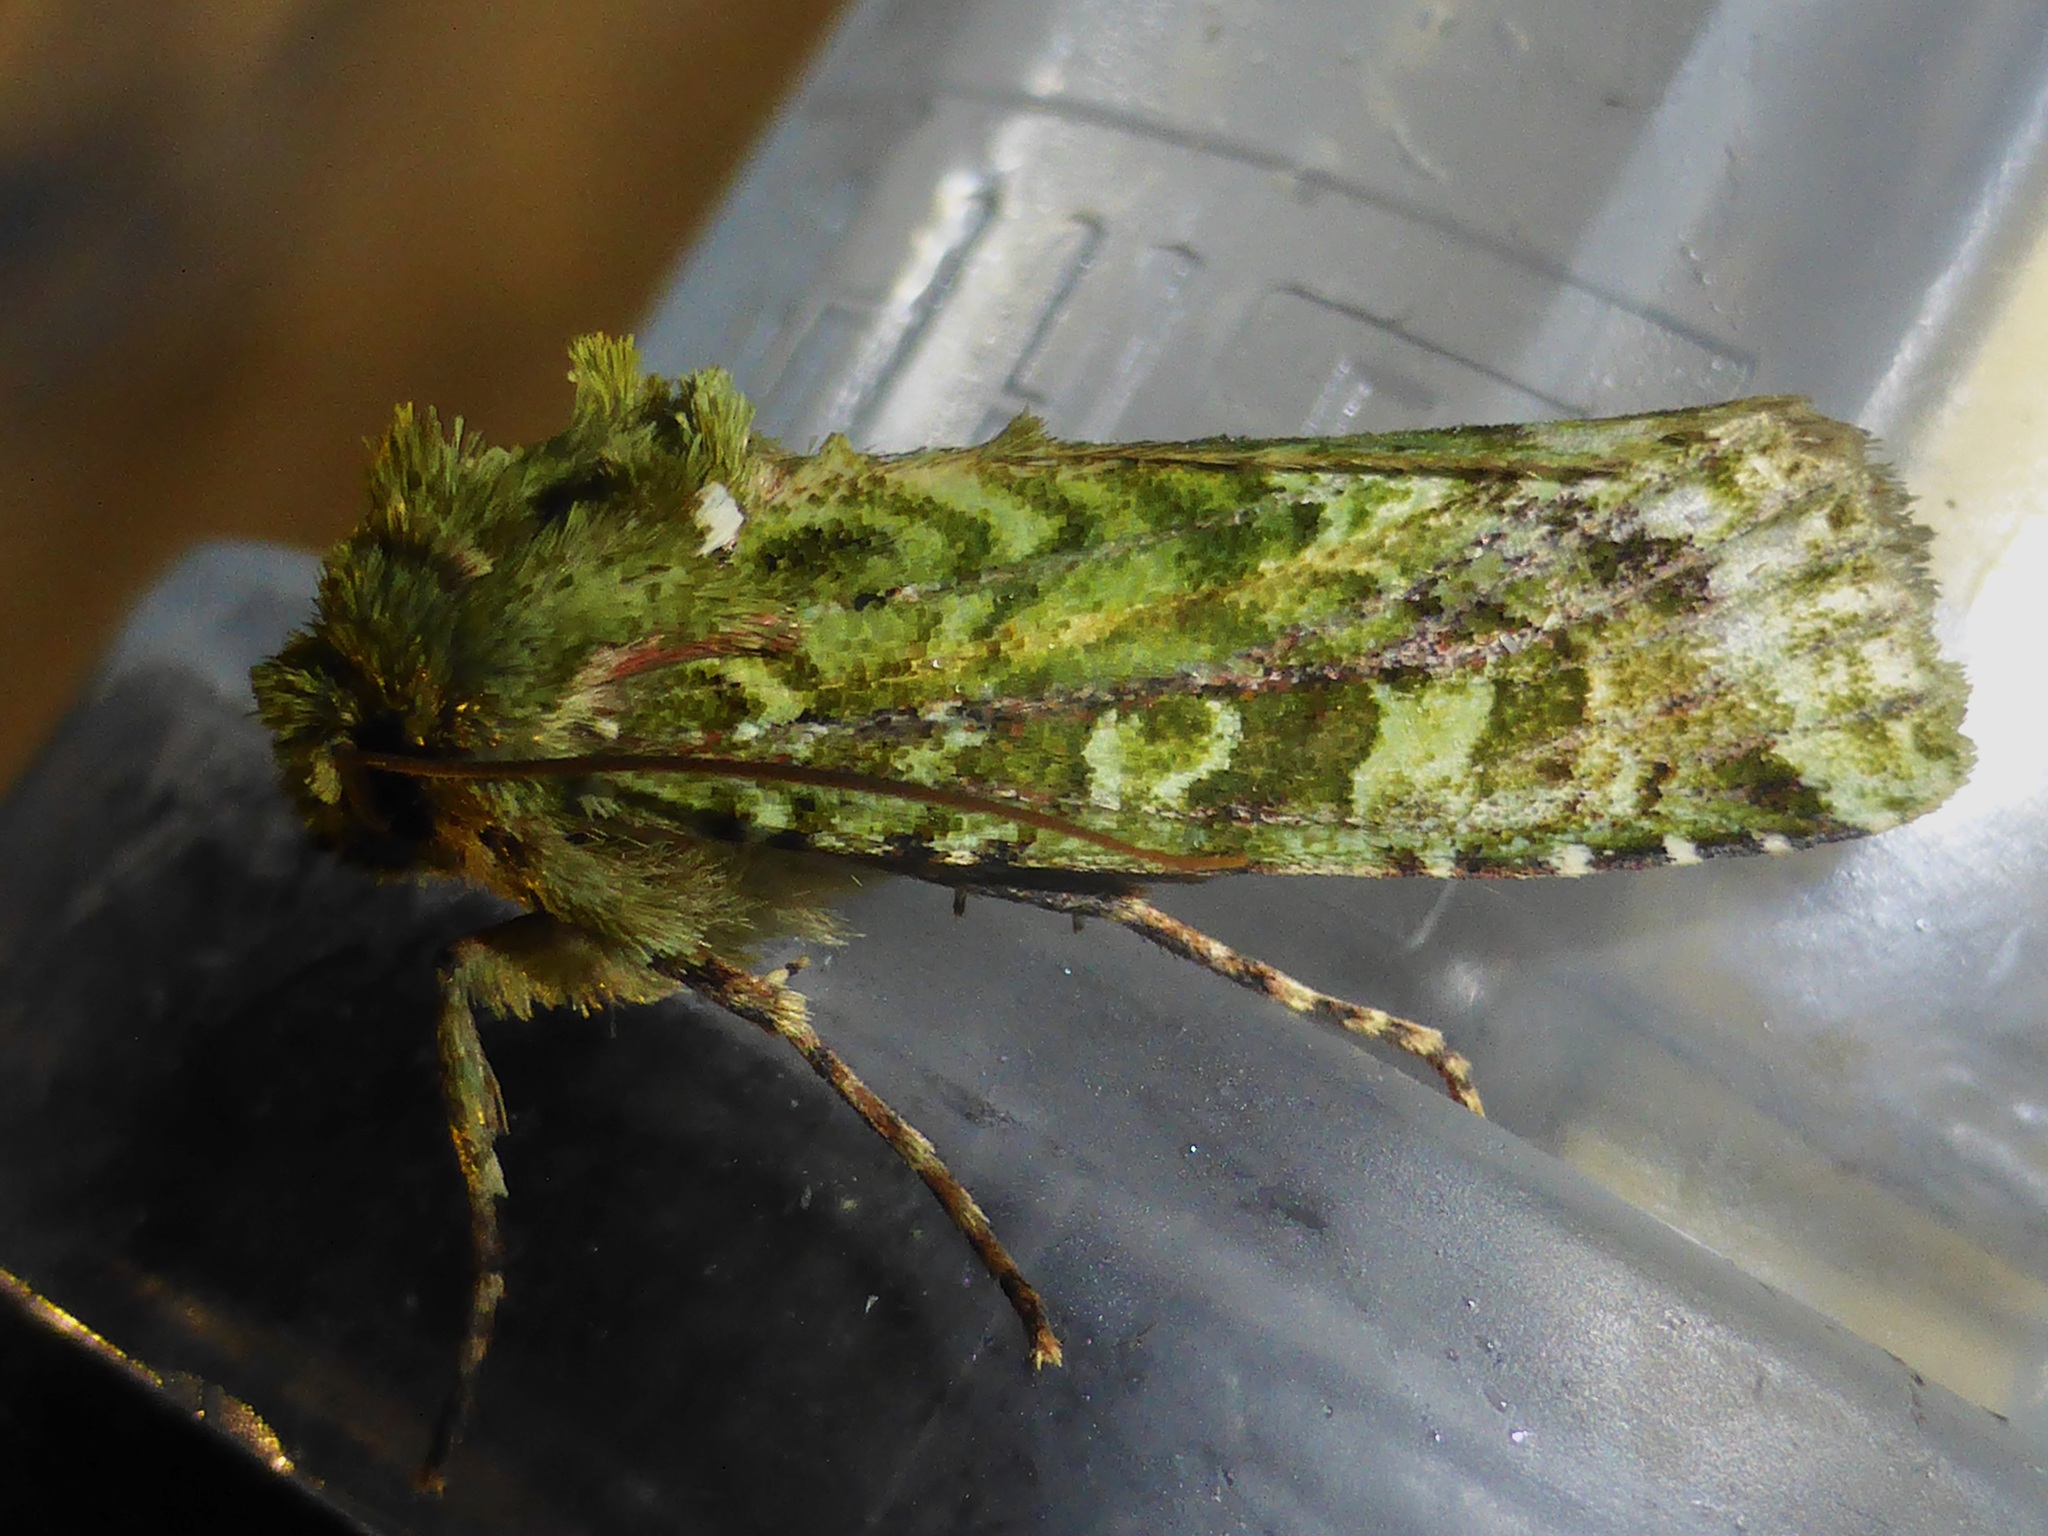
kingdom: Animalia
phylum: Arthropoda
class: Insecta
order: Lepidoptera
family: Noctuidae
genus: Feredayia
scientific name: Feredayia grammosa
